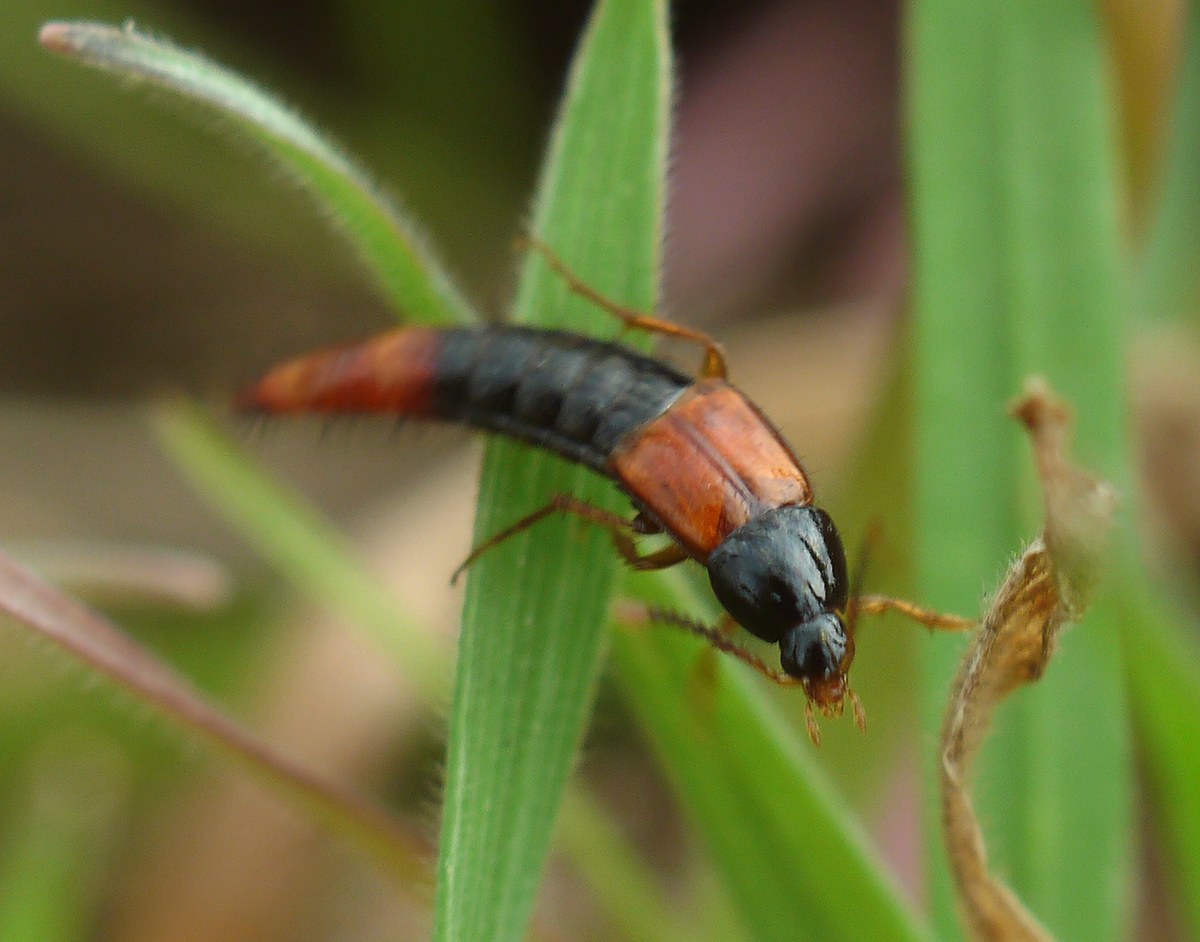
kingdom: Animalia
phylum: Arthropoda
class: Insecta
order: Coleoptera
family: Staphylinidae
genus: Bolitobius
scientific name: Bolitobius castaneus
